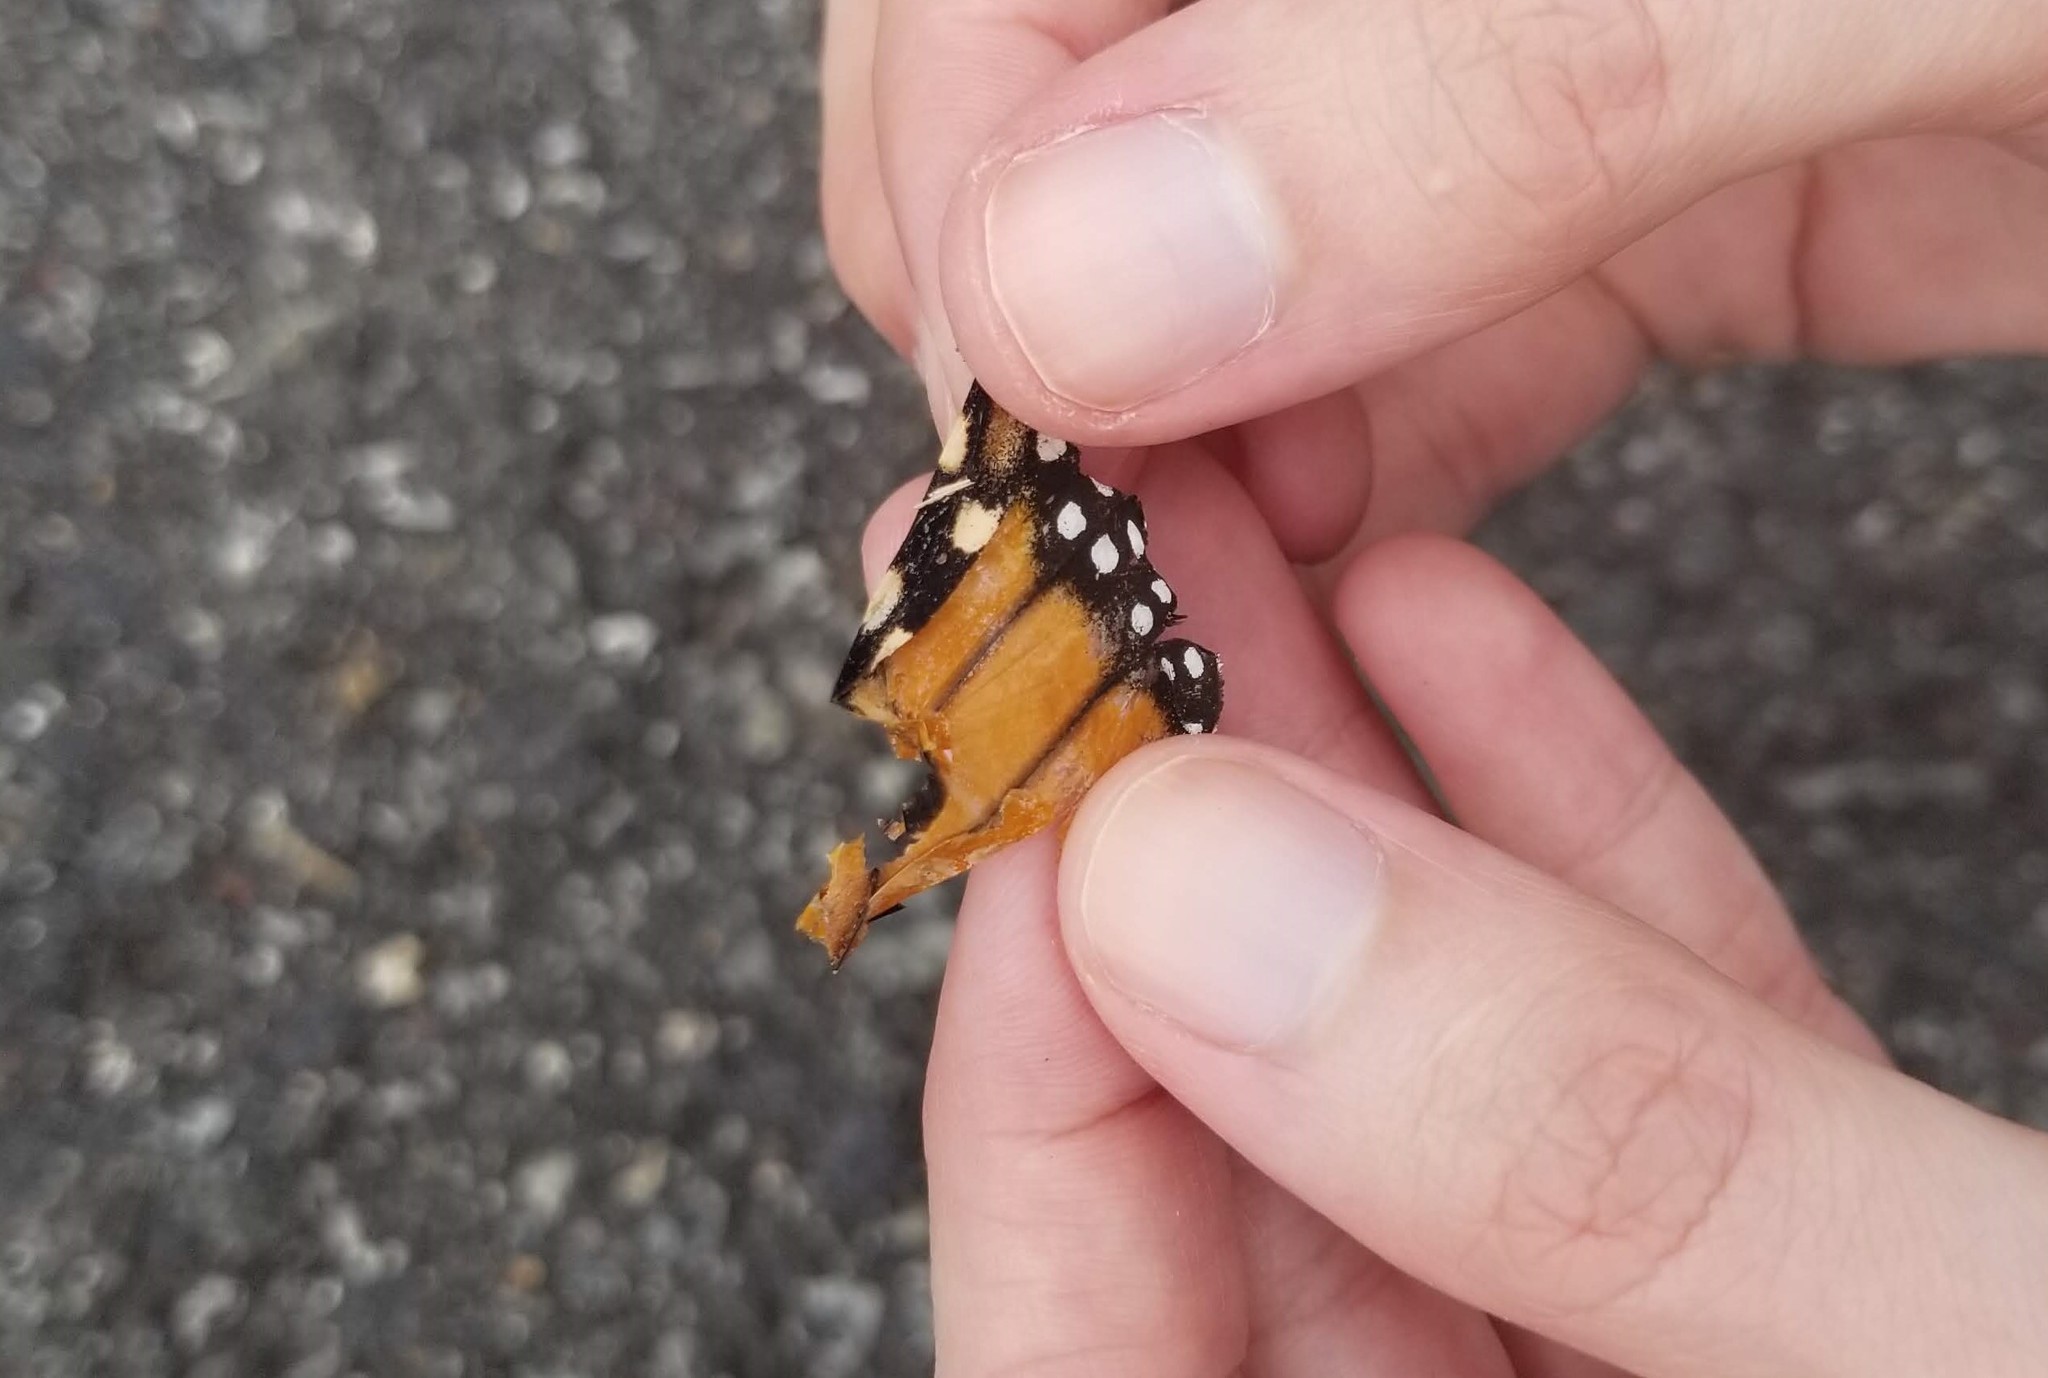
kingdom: Animalia
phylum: Arthropoda
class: Insecta
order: Lepidoptera
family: Nymphalidae
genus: Danaus
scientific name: Danaus plexippus
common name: Monarch
